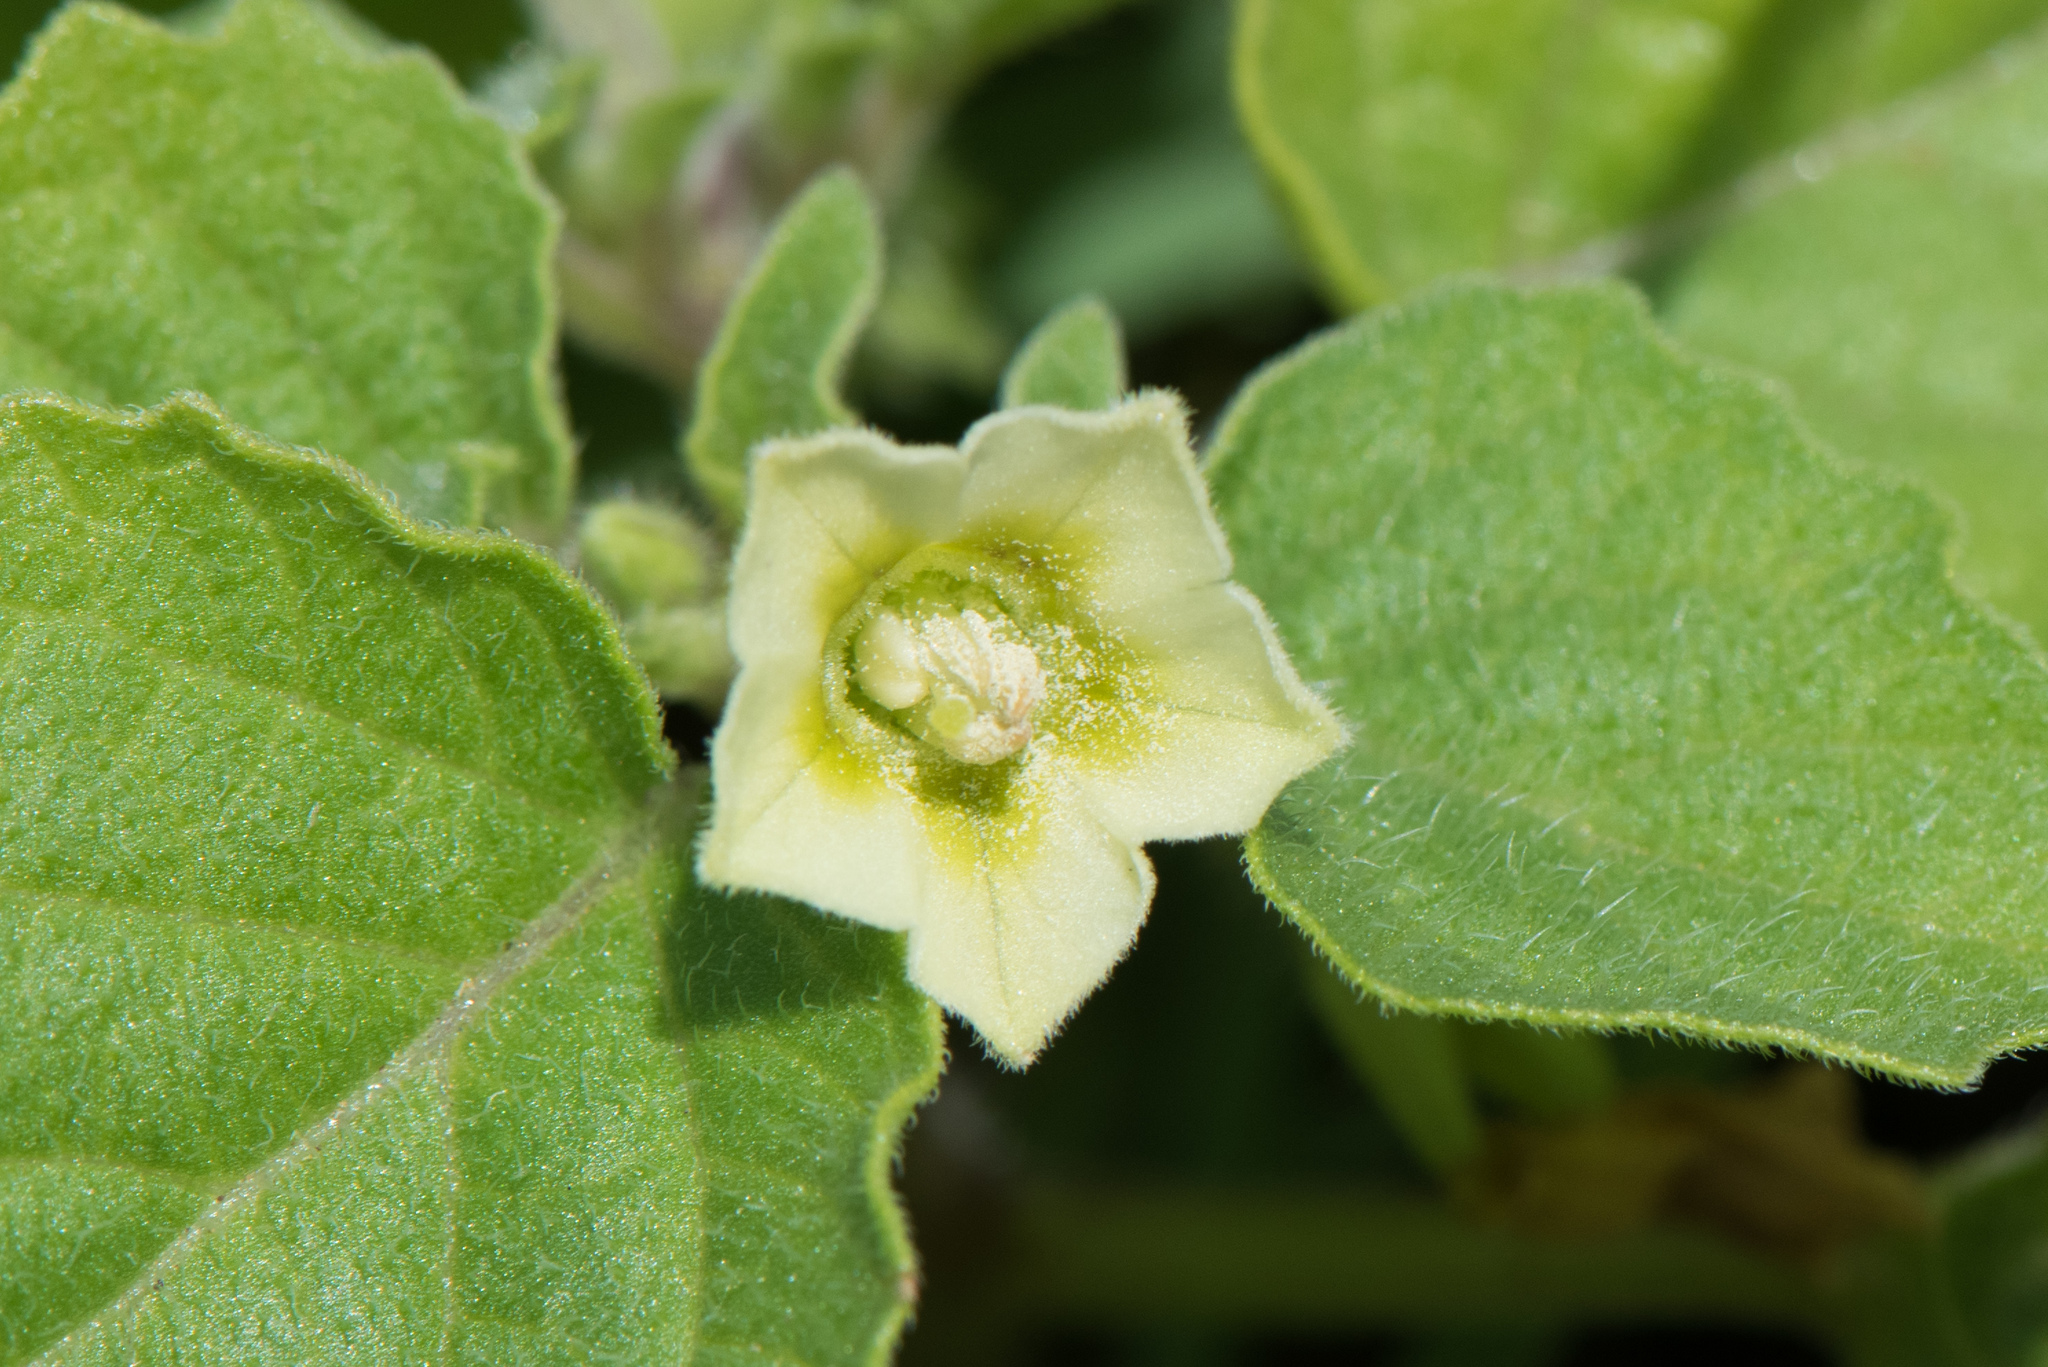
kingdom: Plantae
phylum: Tracheophyta
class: Magnoliopsida
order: Solanales
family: Solanaceae
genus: Physalis
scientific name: Physalis angulata
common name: Angular winter-cherry
